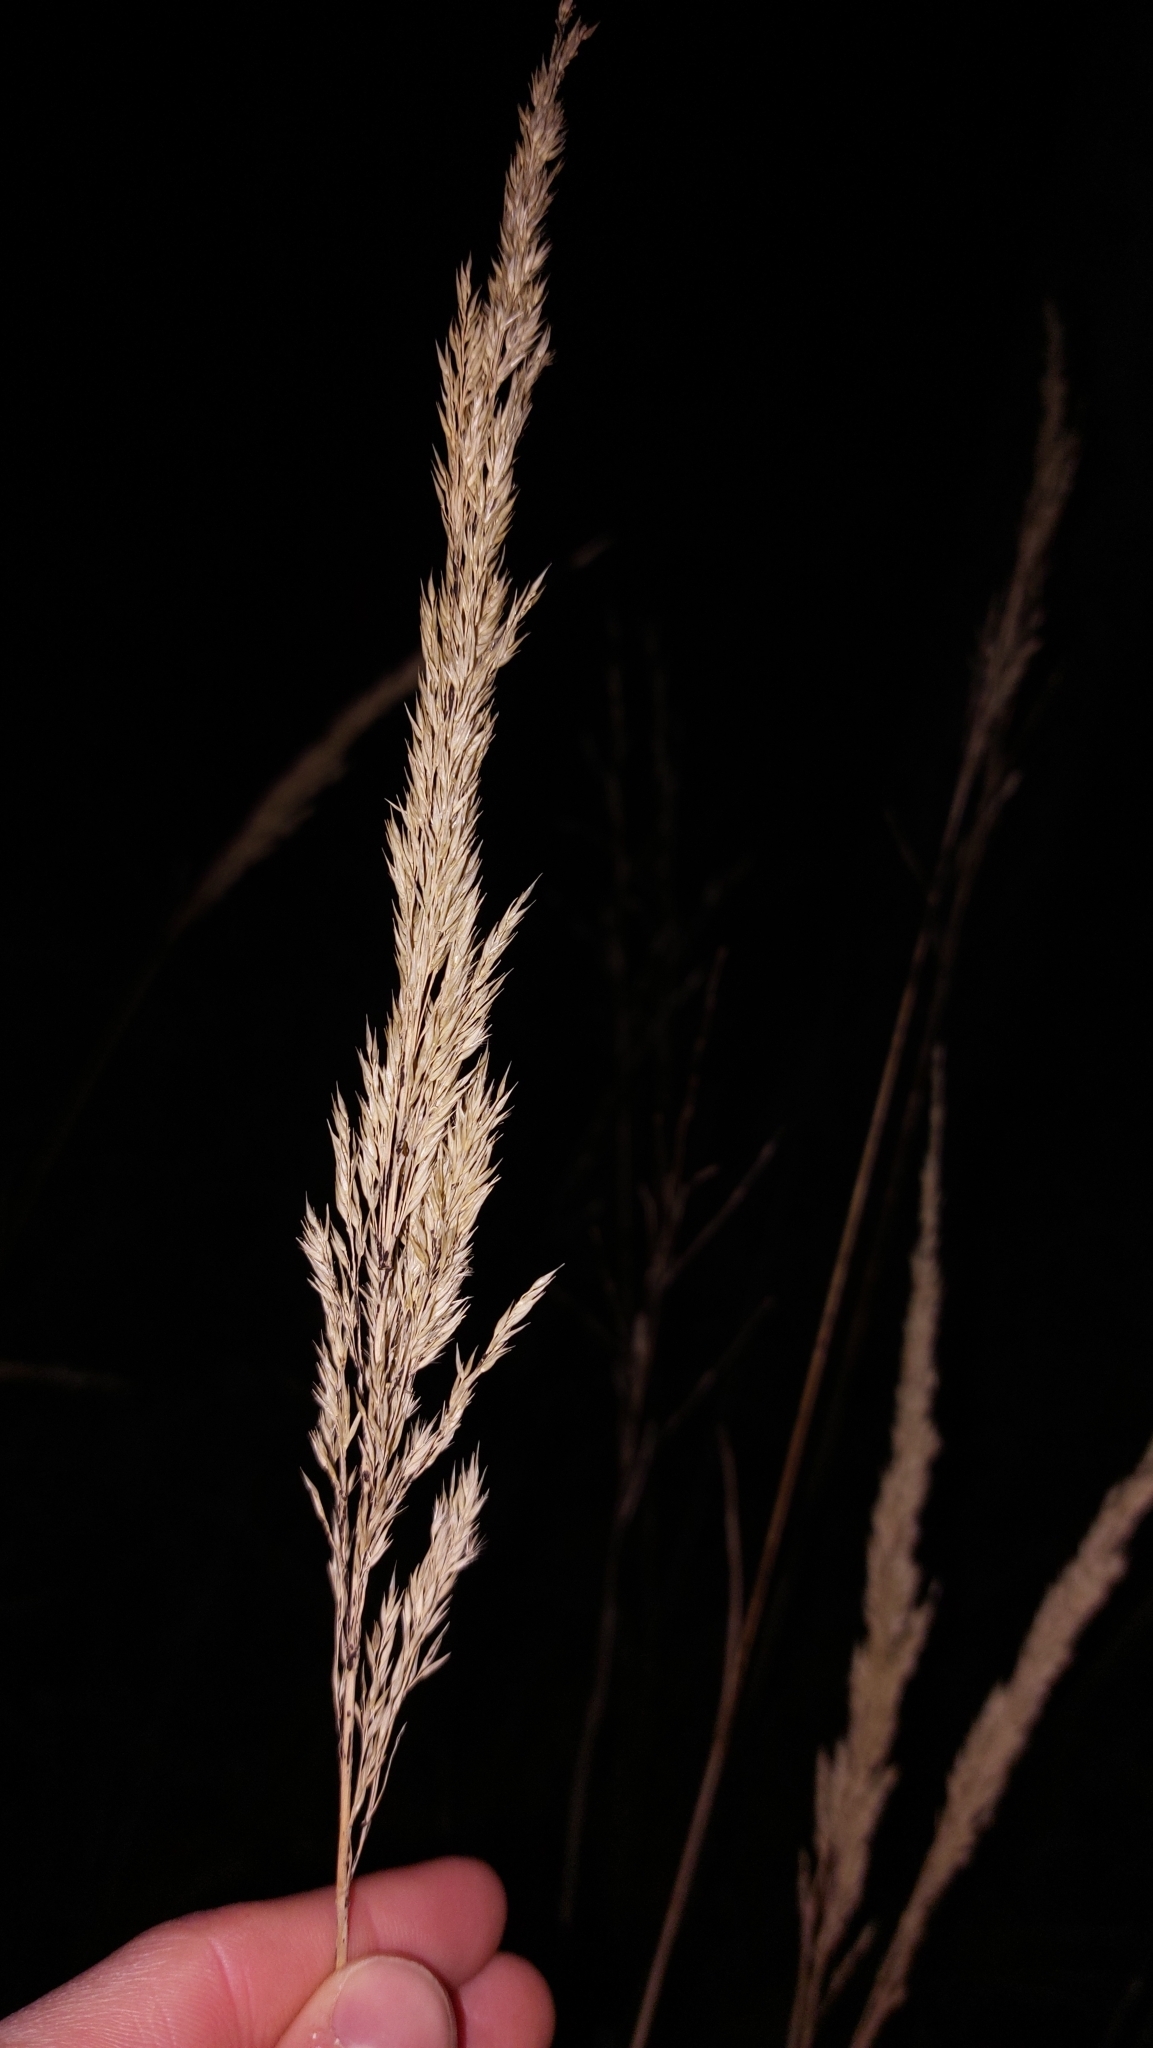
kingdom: Plantae
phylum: Tracheophyta
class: Liliopsida
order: Poales
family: Poaceae
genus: Calamagrostis
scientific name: Calamagrostis epigejos
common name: Wood small-reed
